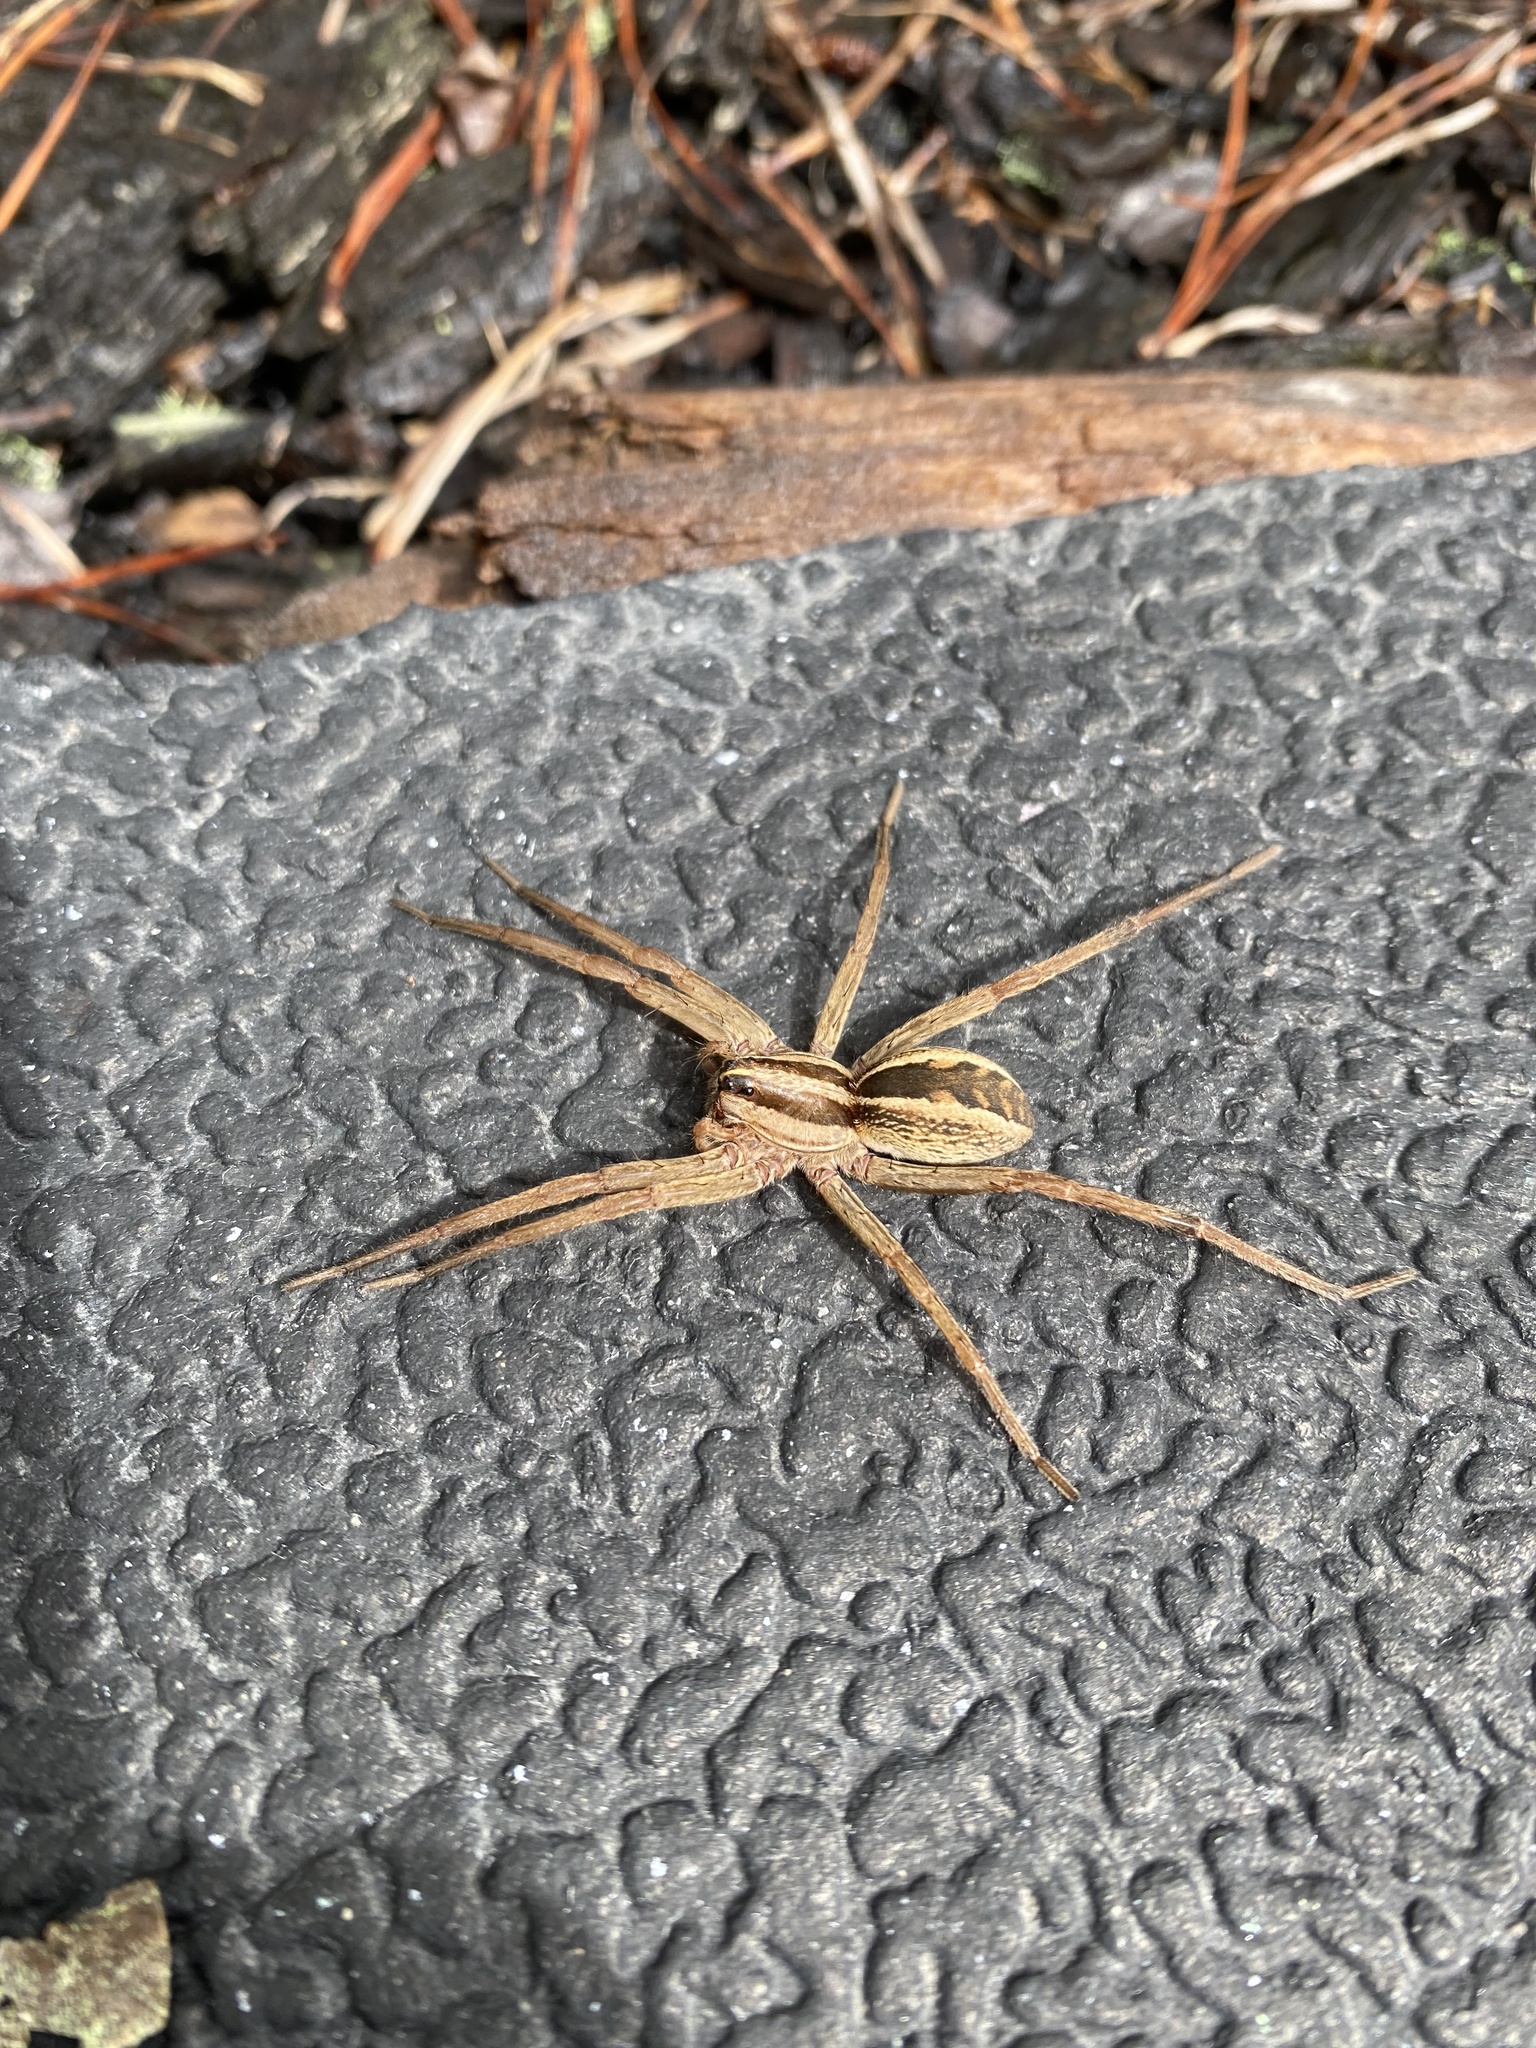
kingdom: Animalia
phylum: Arthropoda
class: Arachnida
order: Araneae
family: Lycosidae
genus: Rabidosa
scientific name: Rabidosa rabida
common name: Rabid wolf spider
